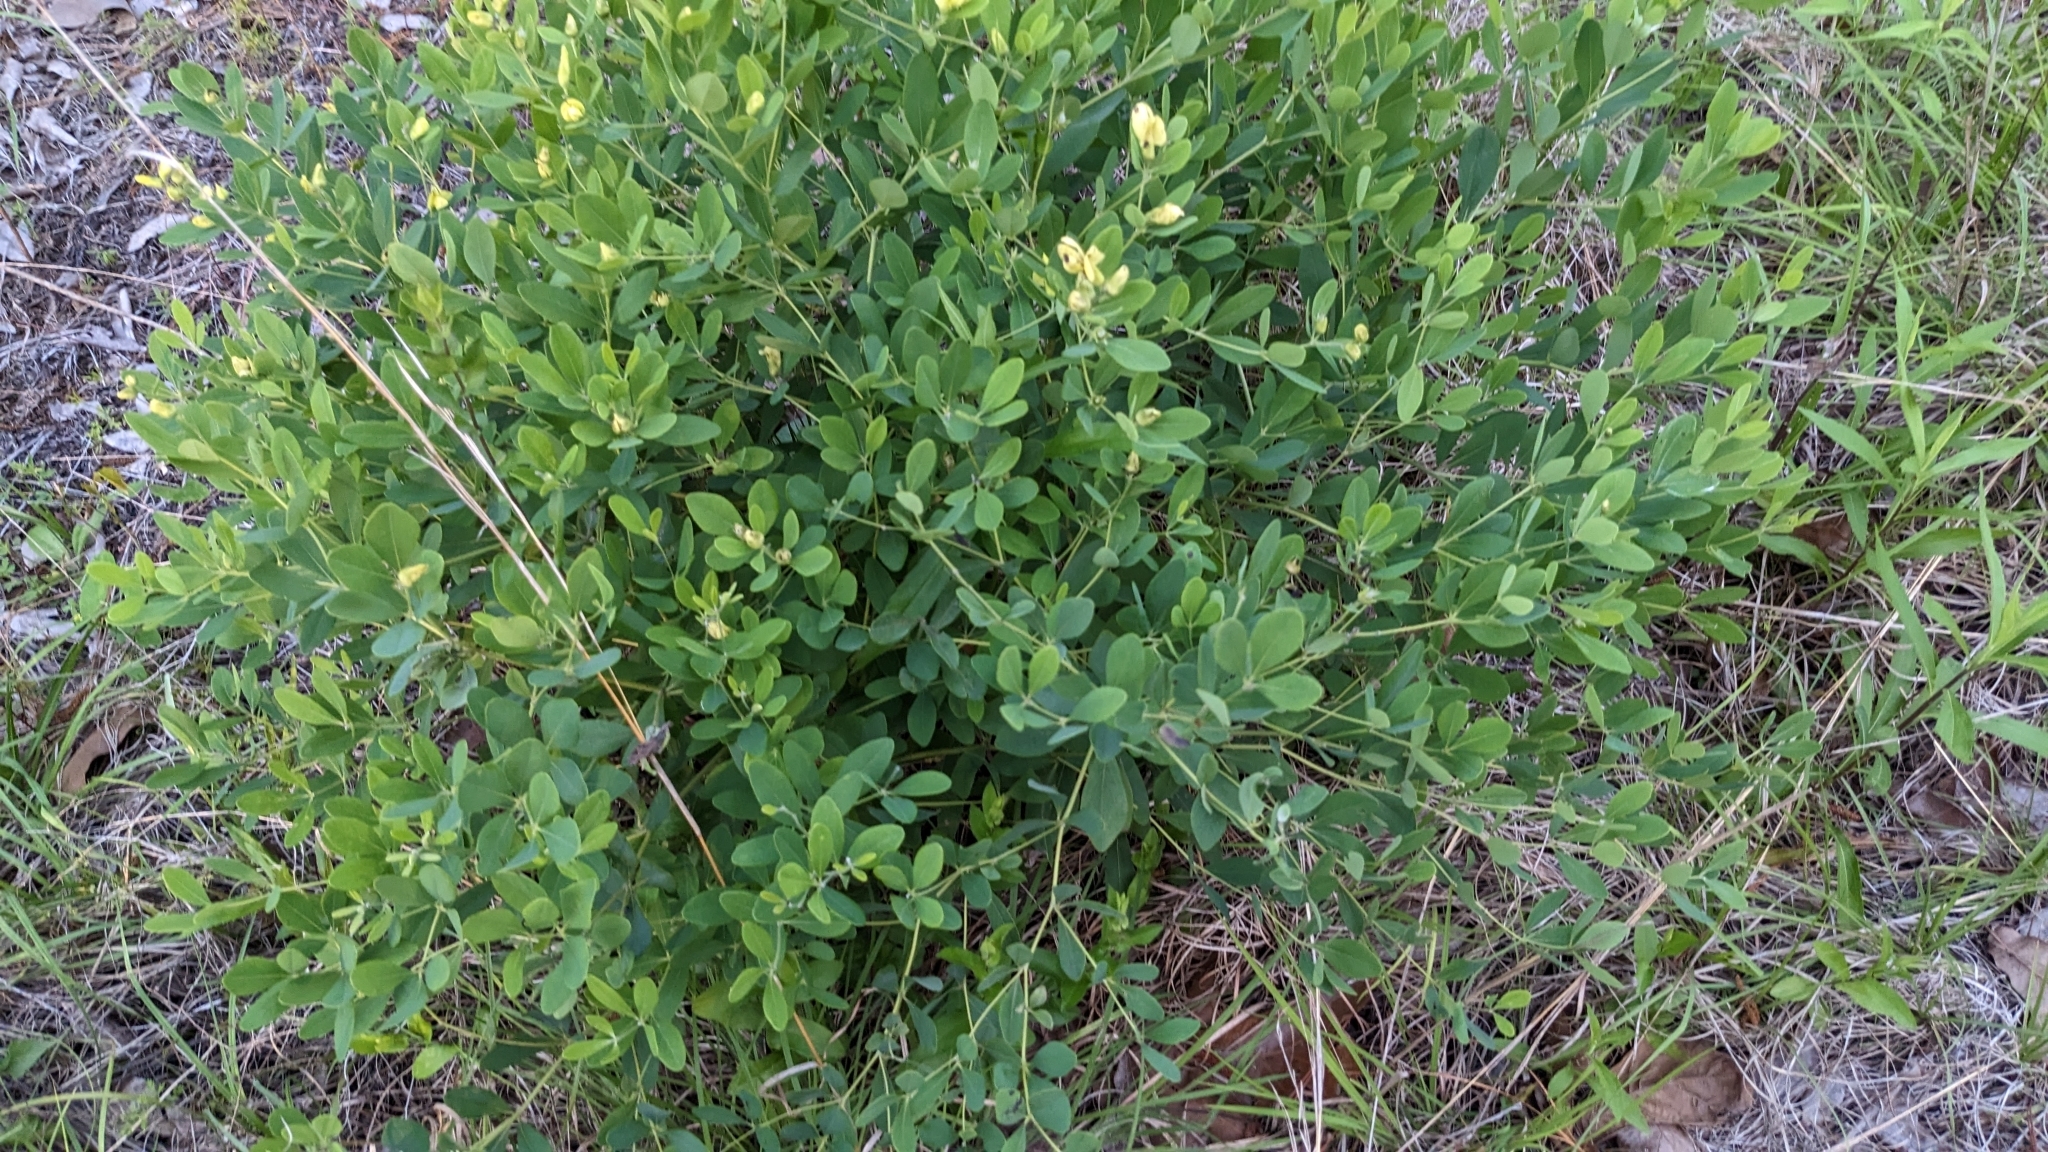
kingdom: Plantae
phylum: Tracheophyta
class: Magnoliopsida
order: Fabales
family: Fabaceae
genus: Baptisia
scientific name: Baptisia nuttalliana
